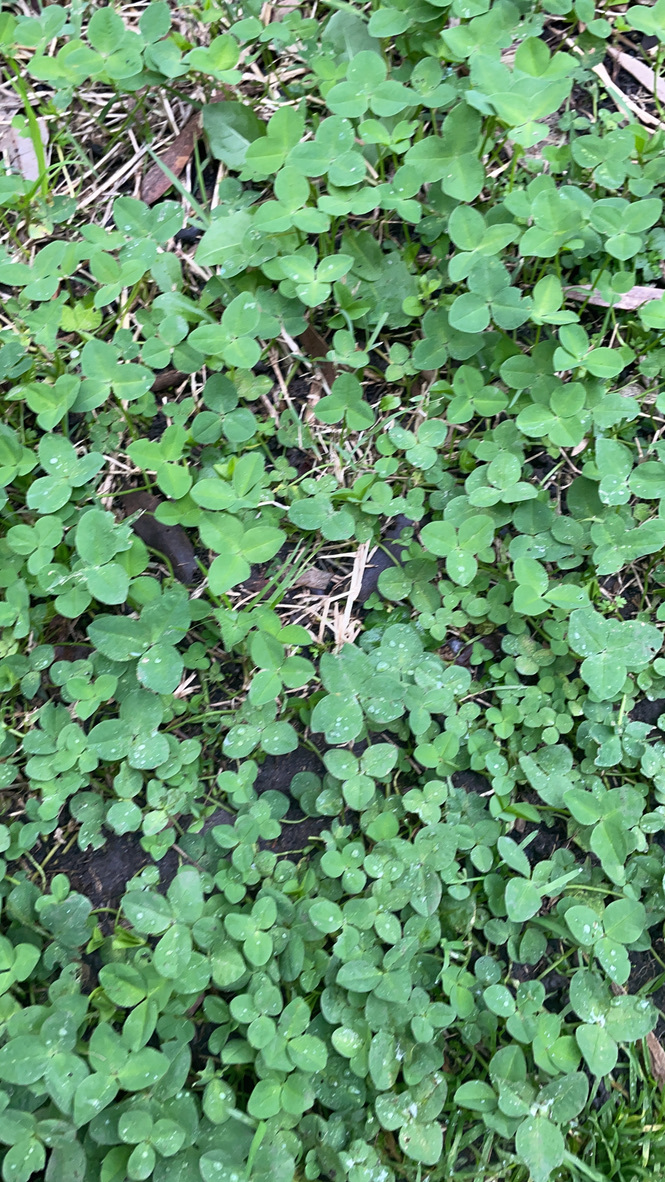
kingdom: Plantae
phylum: Tracheophyta
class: Magnoliopsida
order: Fabales
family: Fabaceae
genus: Trifolium
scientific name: Trifolium repens
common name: White clover
